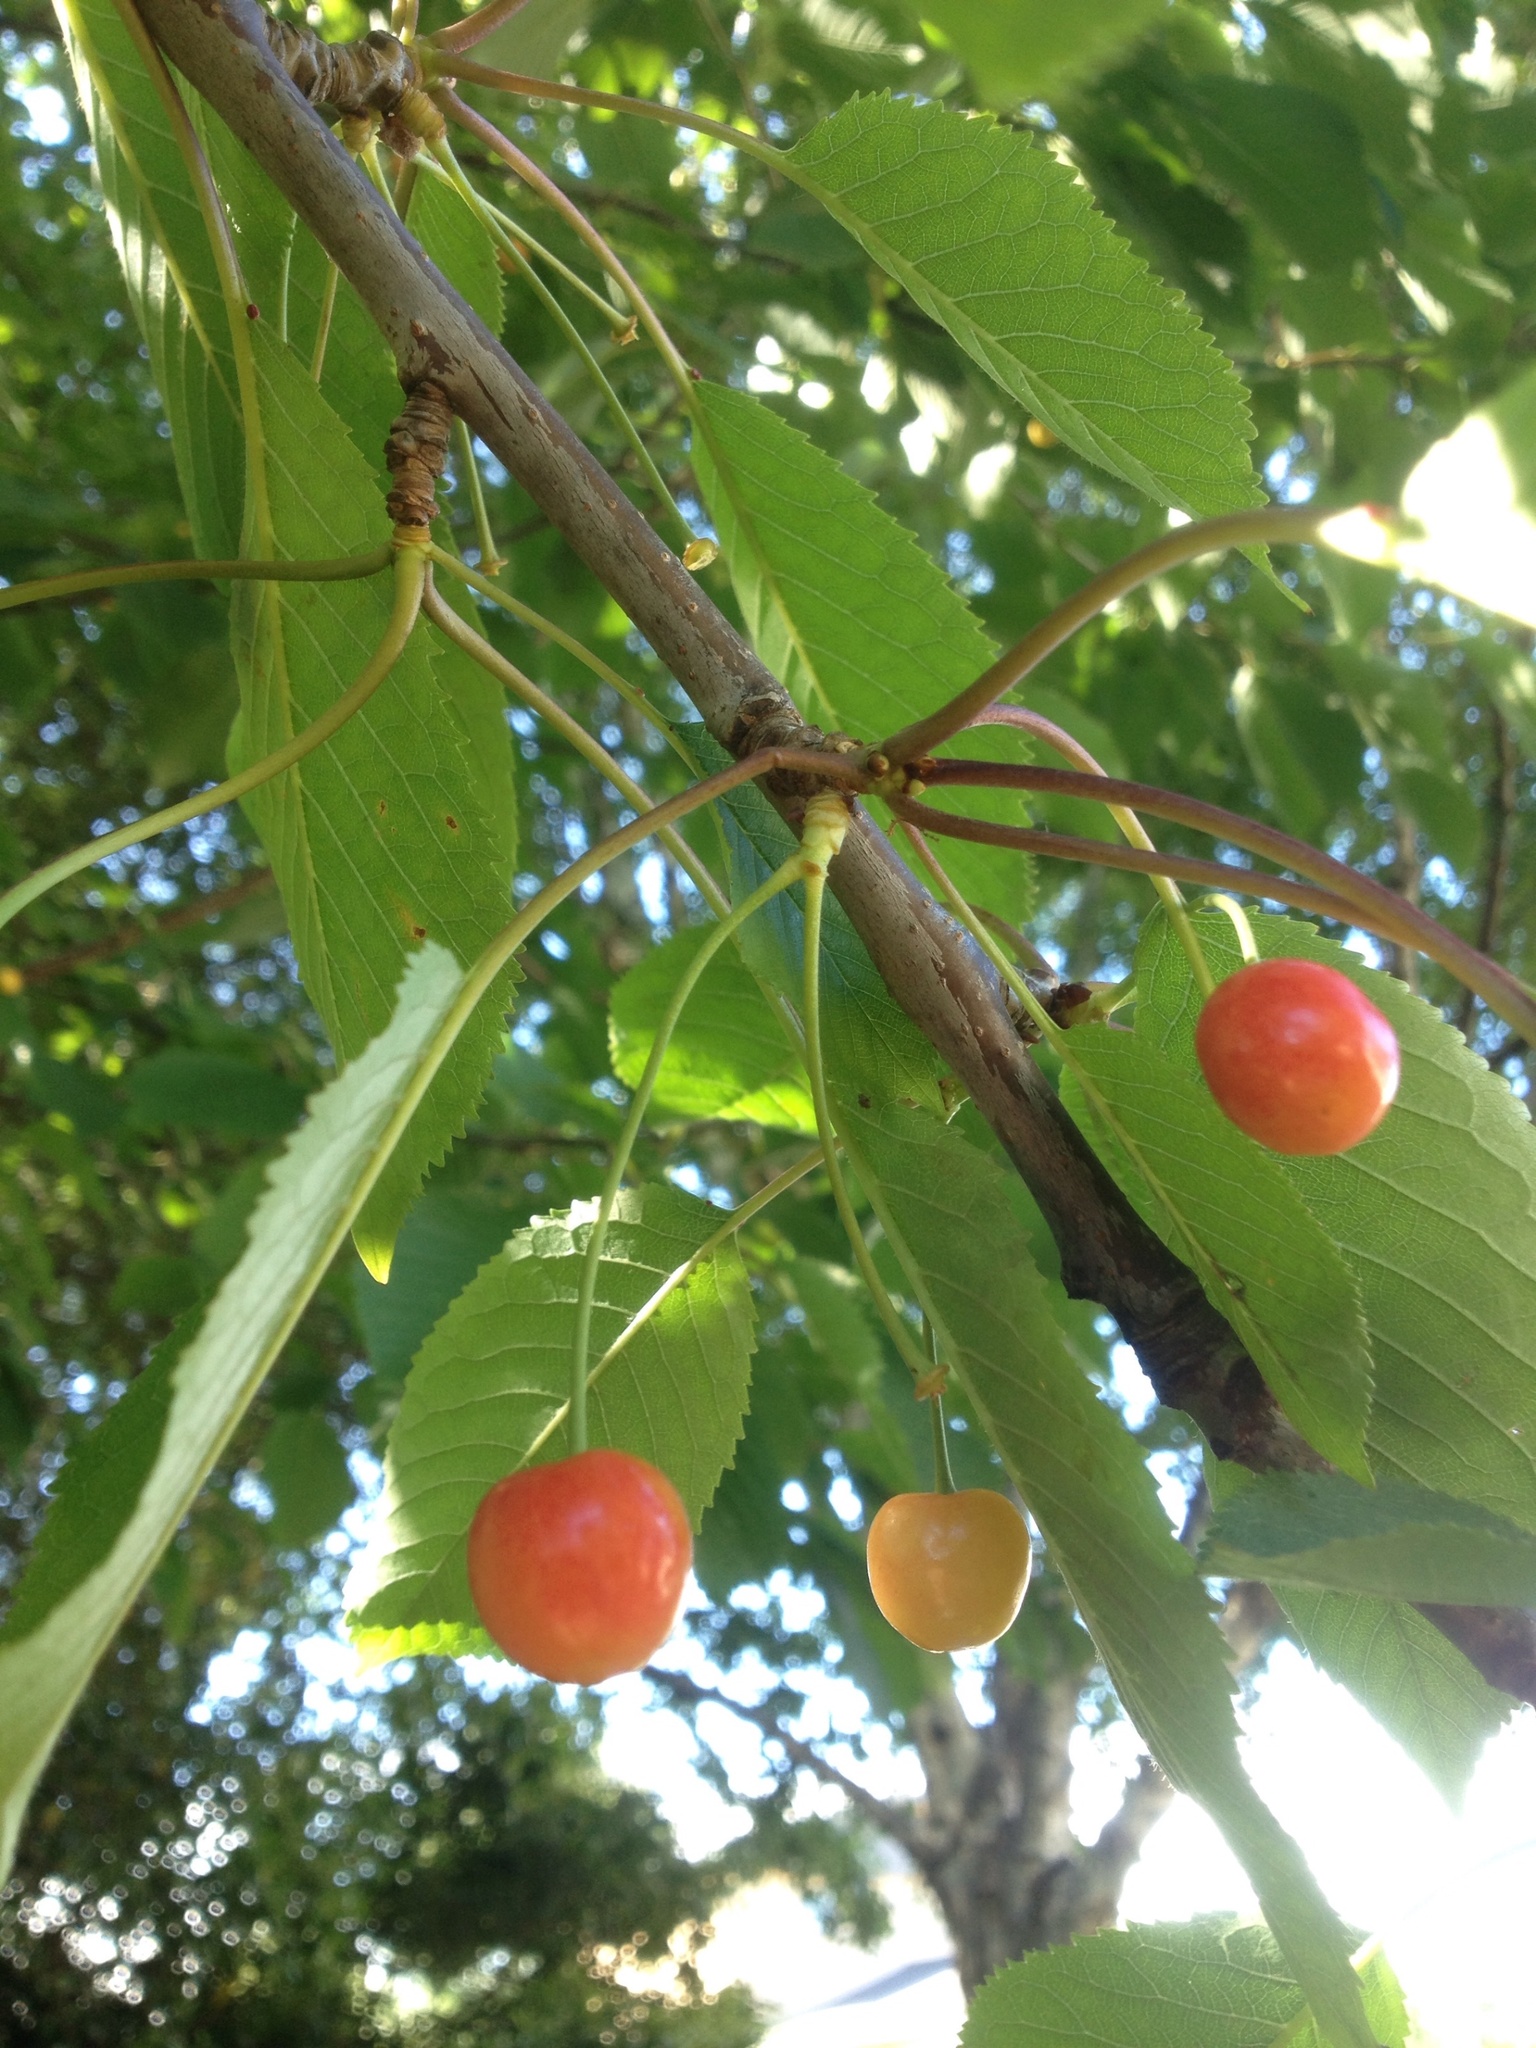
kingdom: Plantae
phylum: Tracheophyta
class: Magnoliopsida
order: Rosales
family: Rosaceae
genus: Prunus
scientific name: Prunus avium
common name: Sweet cherry
